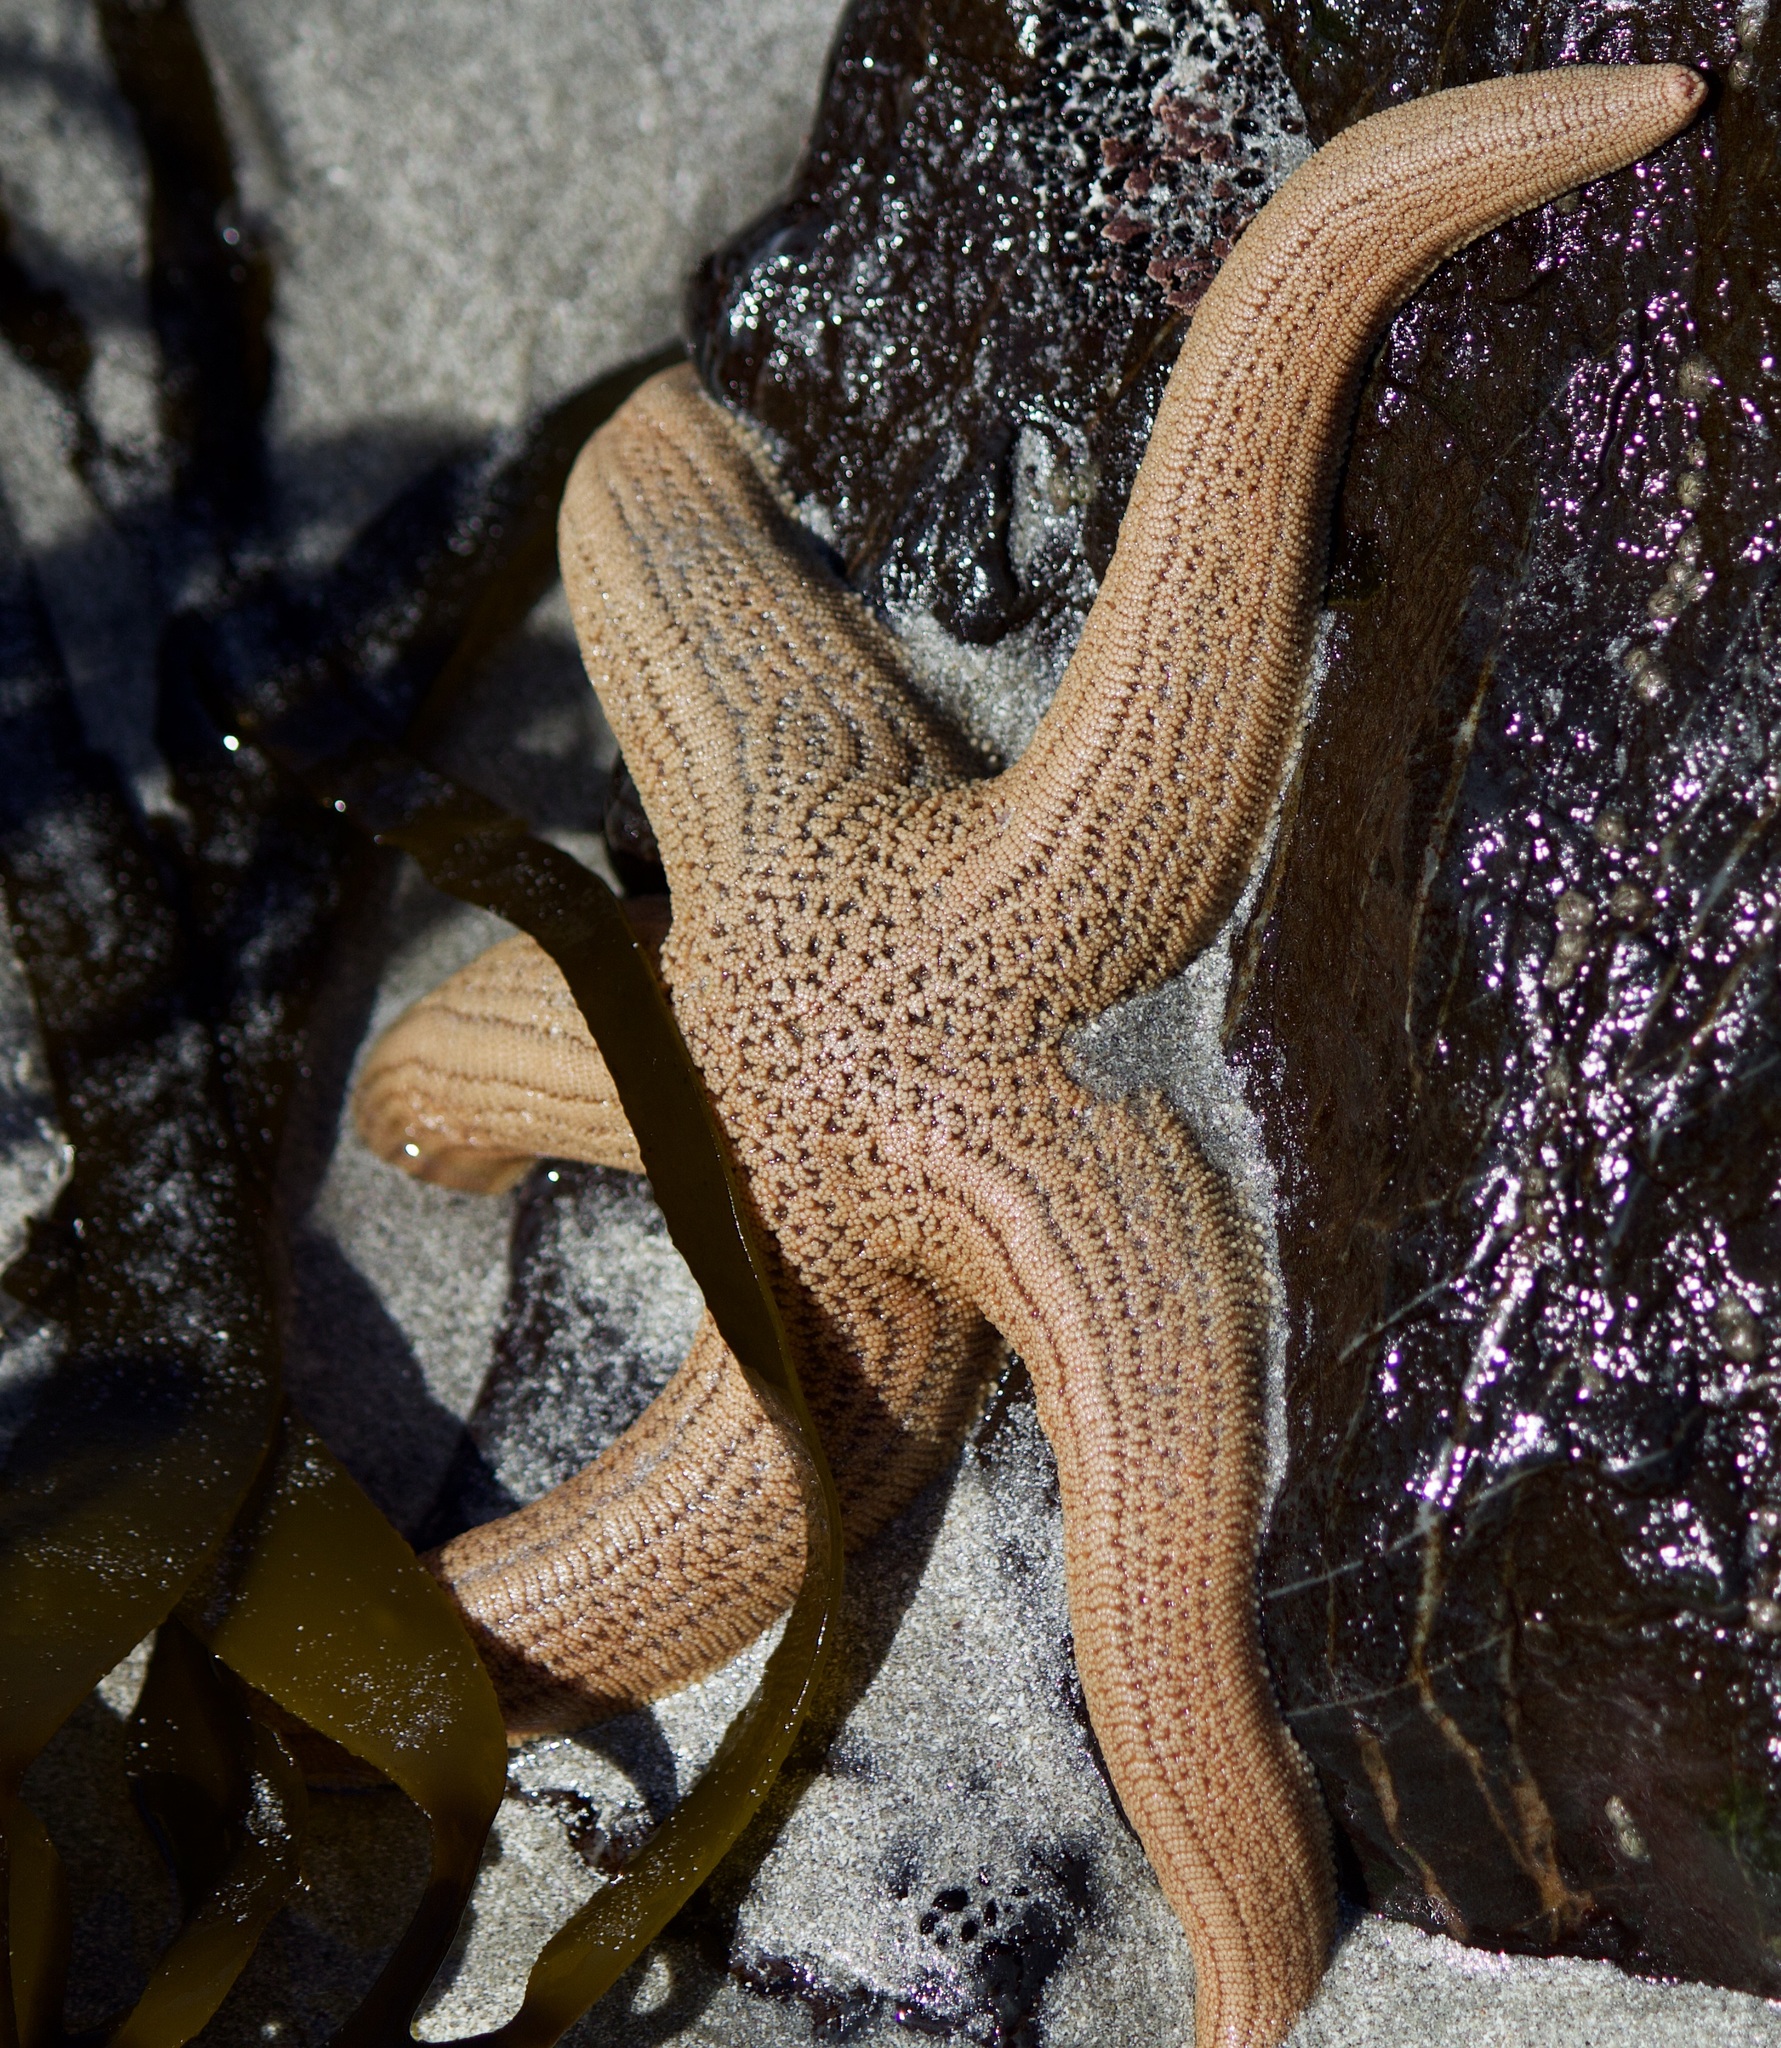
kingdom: Animalia
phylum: Echinodermata
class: Asteroidea
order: Forcipulatida
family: Stichasteridae
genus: Stichaster
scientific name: Stichaster striatus
